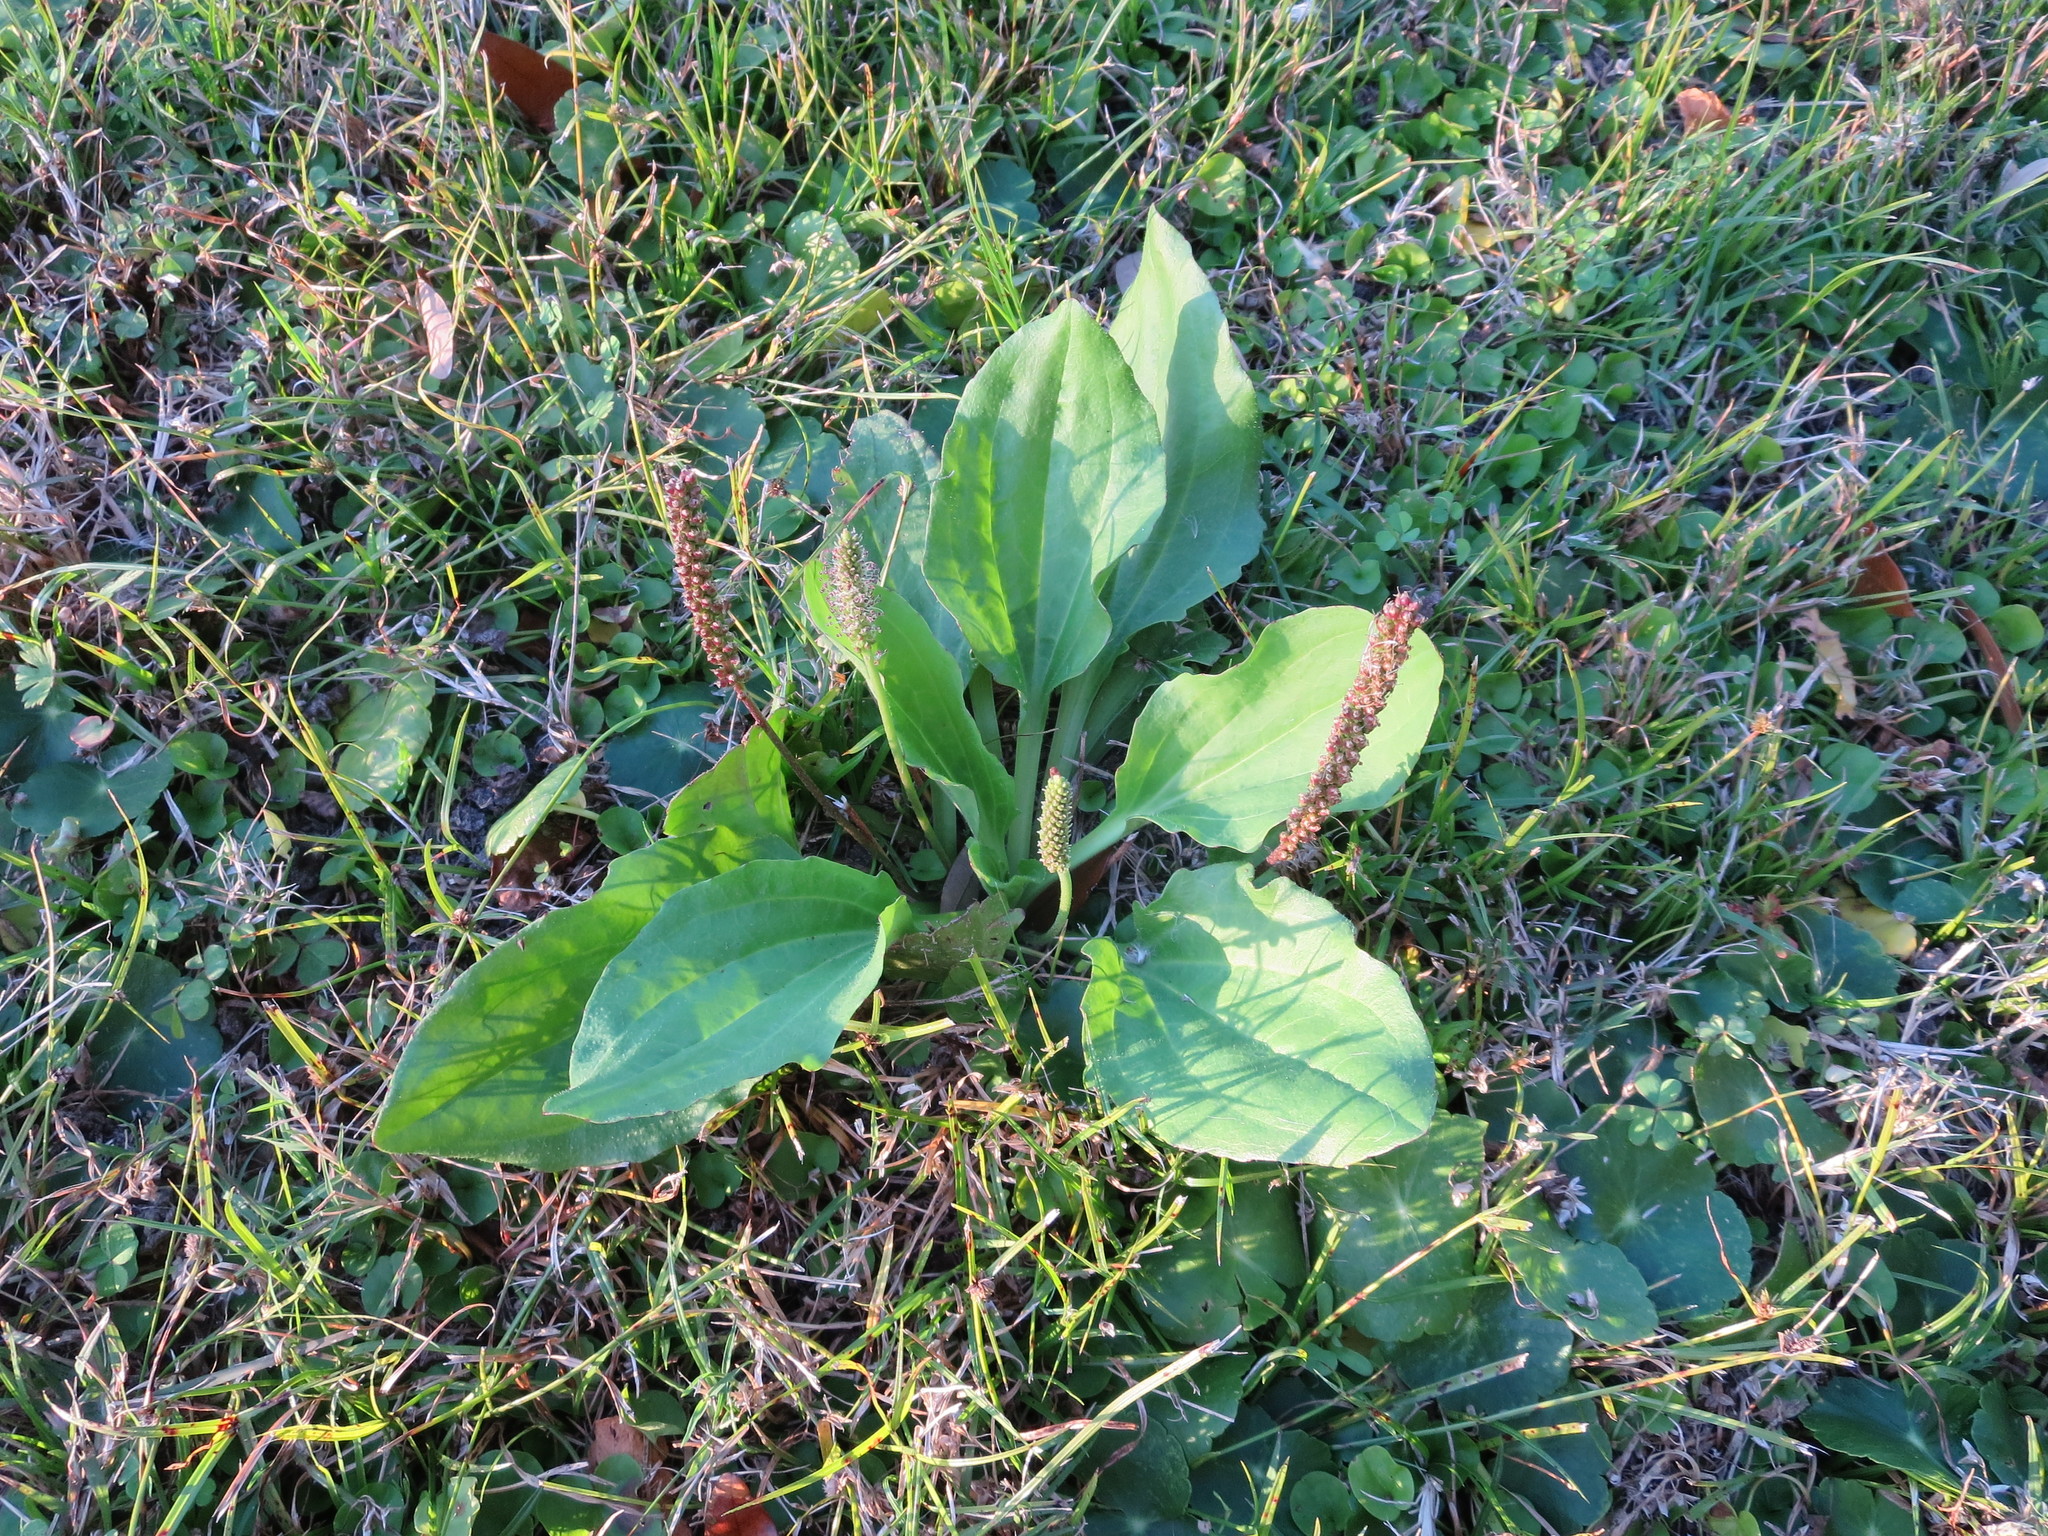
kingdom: Plantae
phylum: Tracheophyta
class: Magnoliopsida
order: Lamiales
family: Plantaginaceae
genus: Plantago
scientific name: Plantago major
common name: Common plantain
